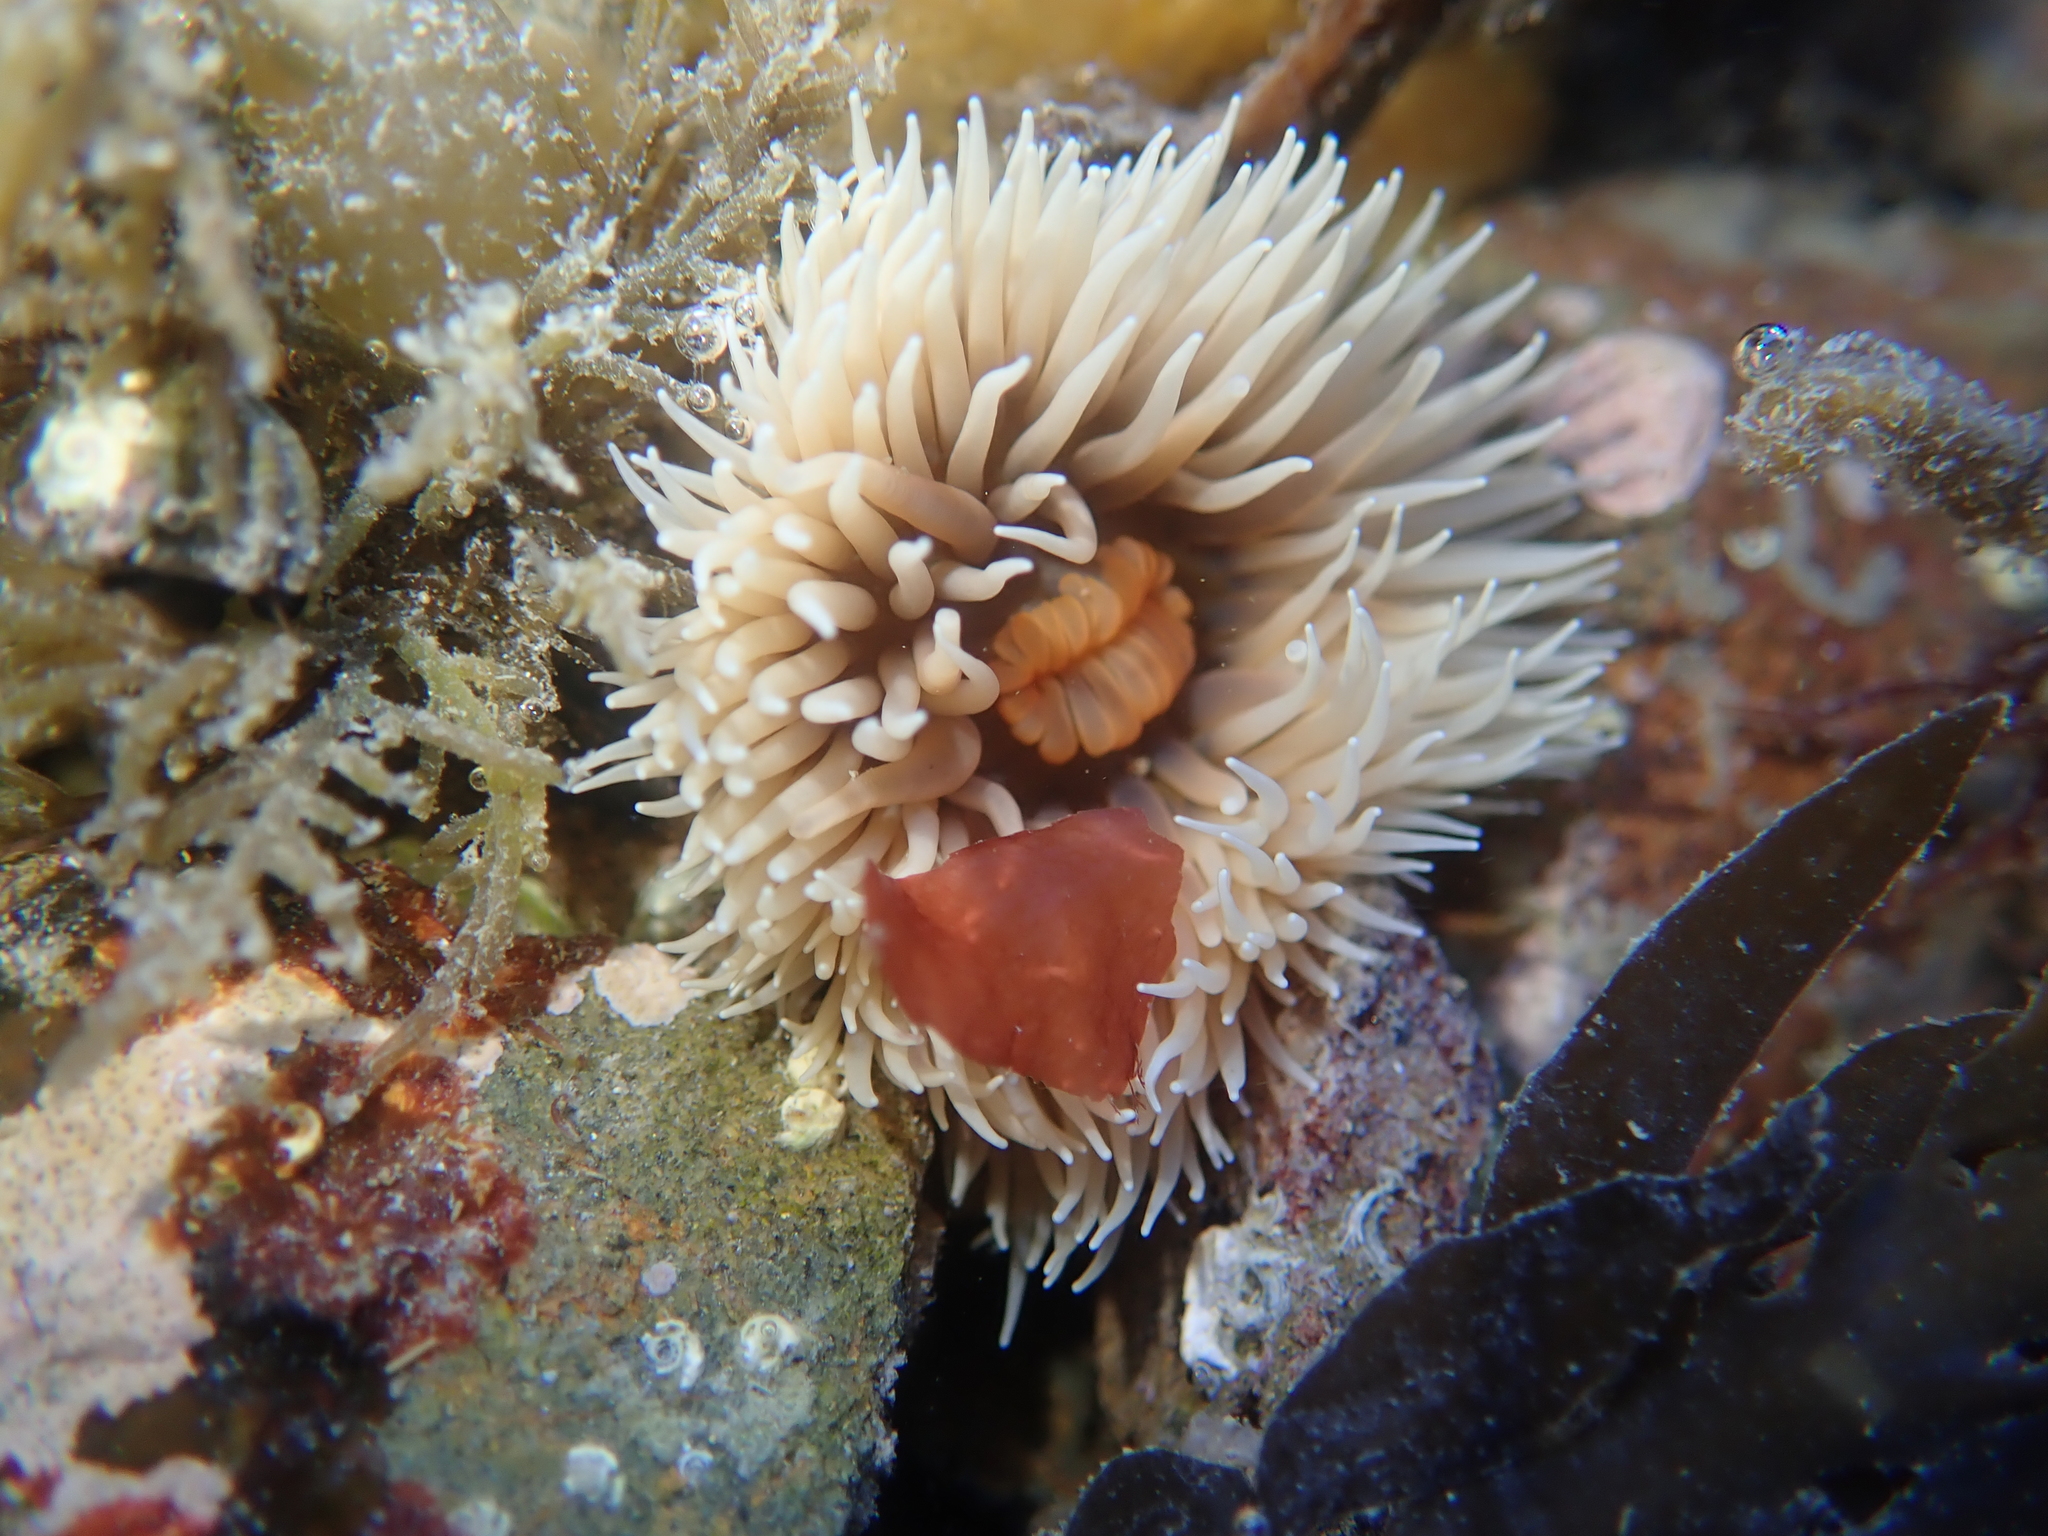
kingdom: Animalia
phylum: Cnidaria
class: Anthozoa
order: Actiniaria
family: Diadumenidae
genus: Diadumene
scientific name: Diadumene neozelanica
